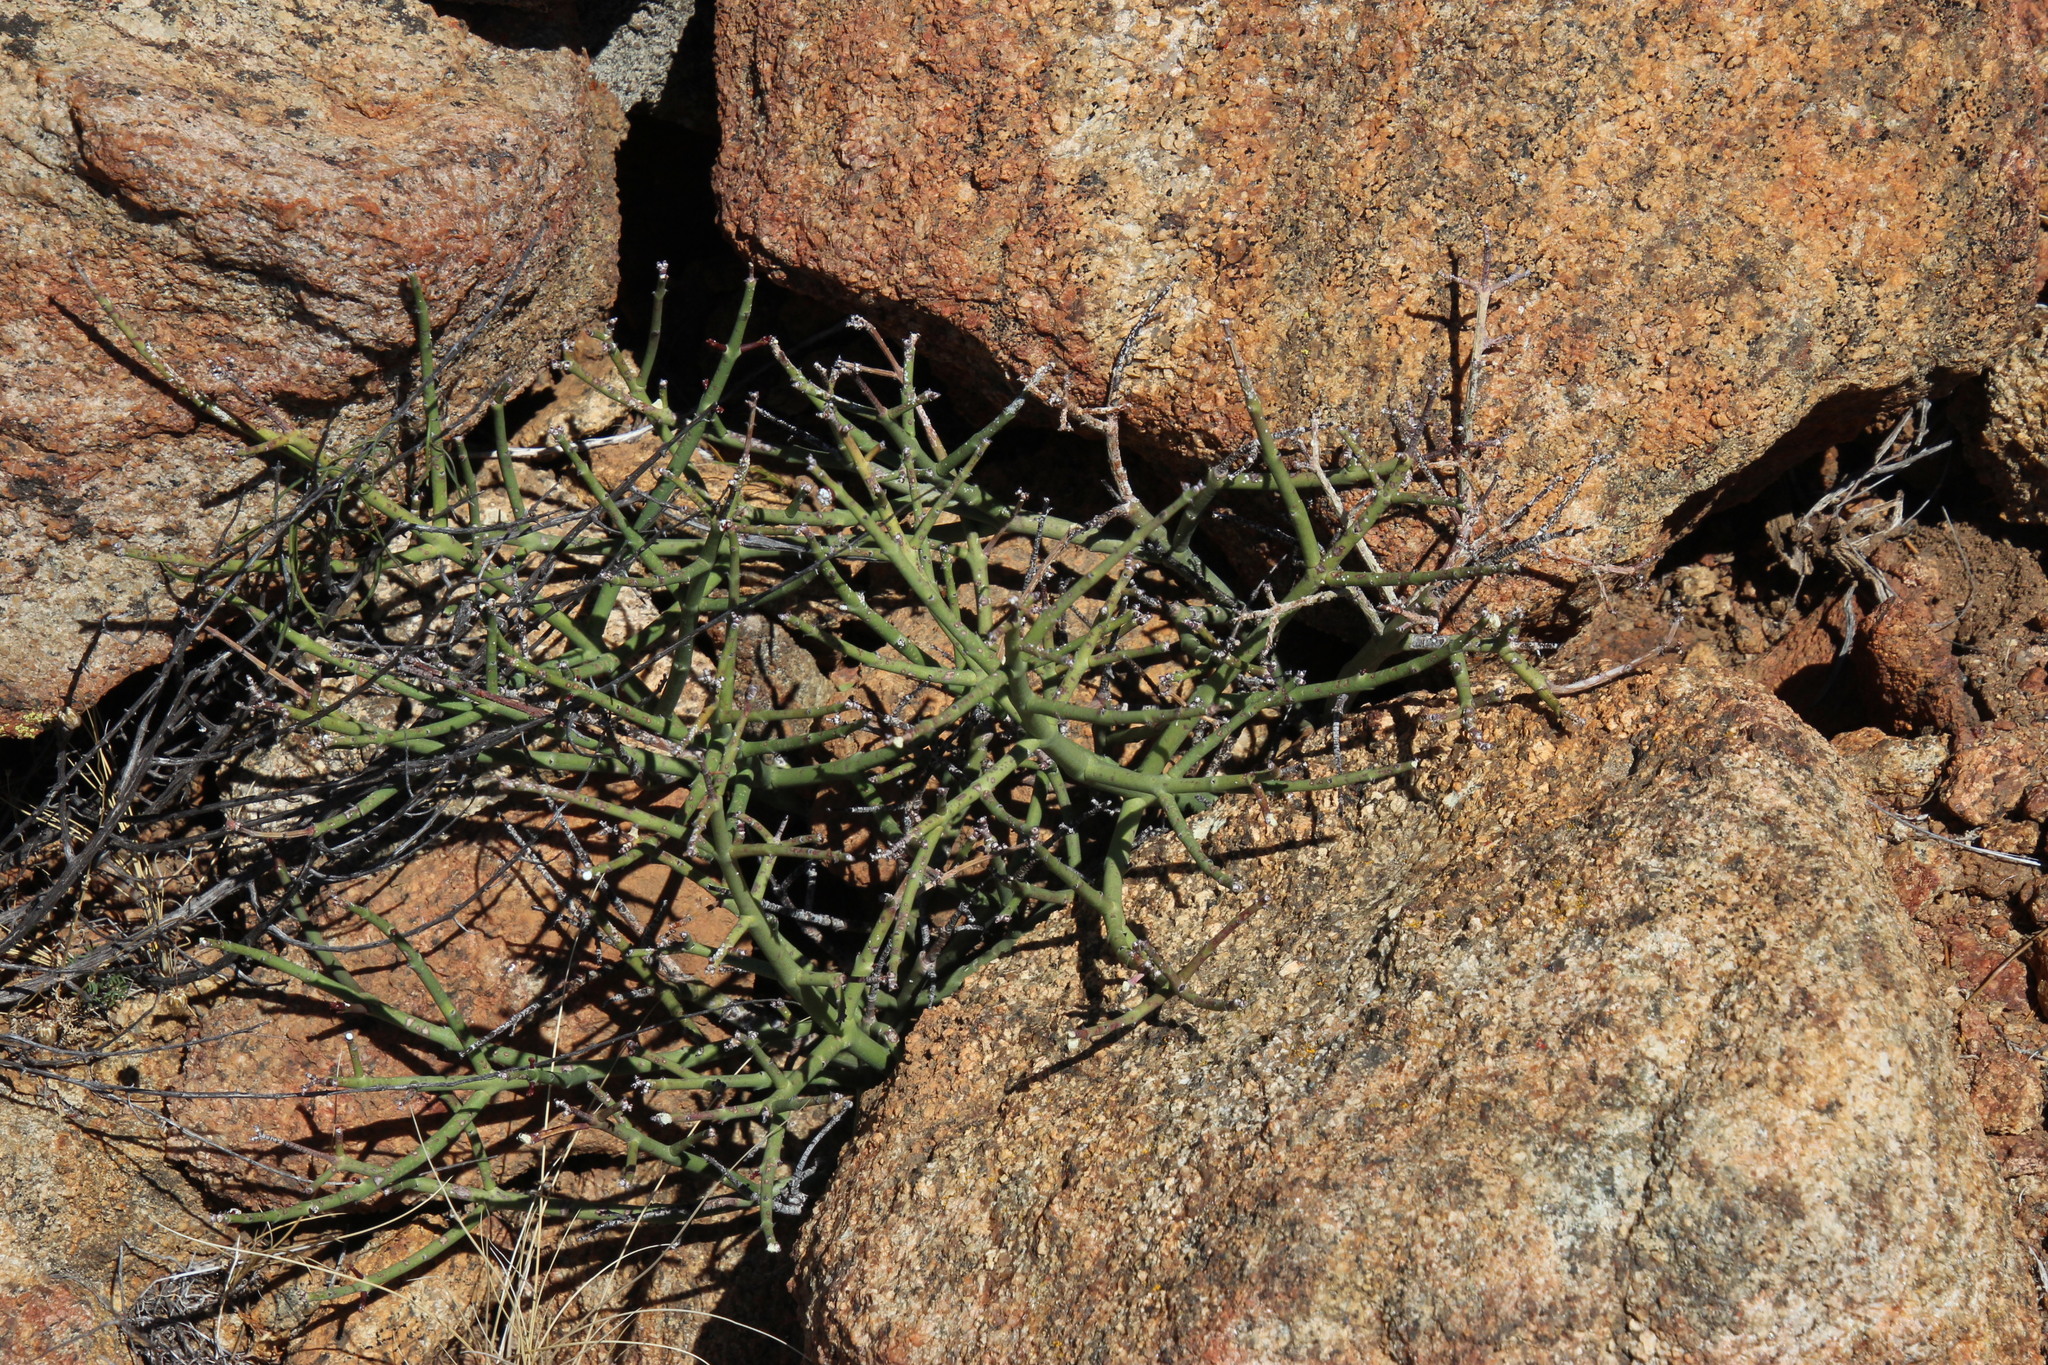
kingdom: Plantae
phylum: Tracheophyta
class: Magnoliopsida
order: Malpighiales
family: Euphorbiaceae
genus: Euphorbia
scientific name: Euphorbia rhombifolia
